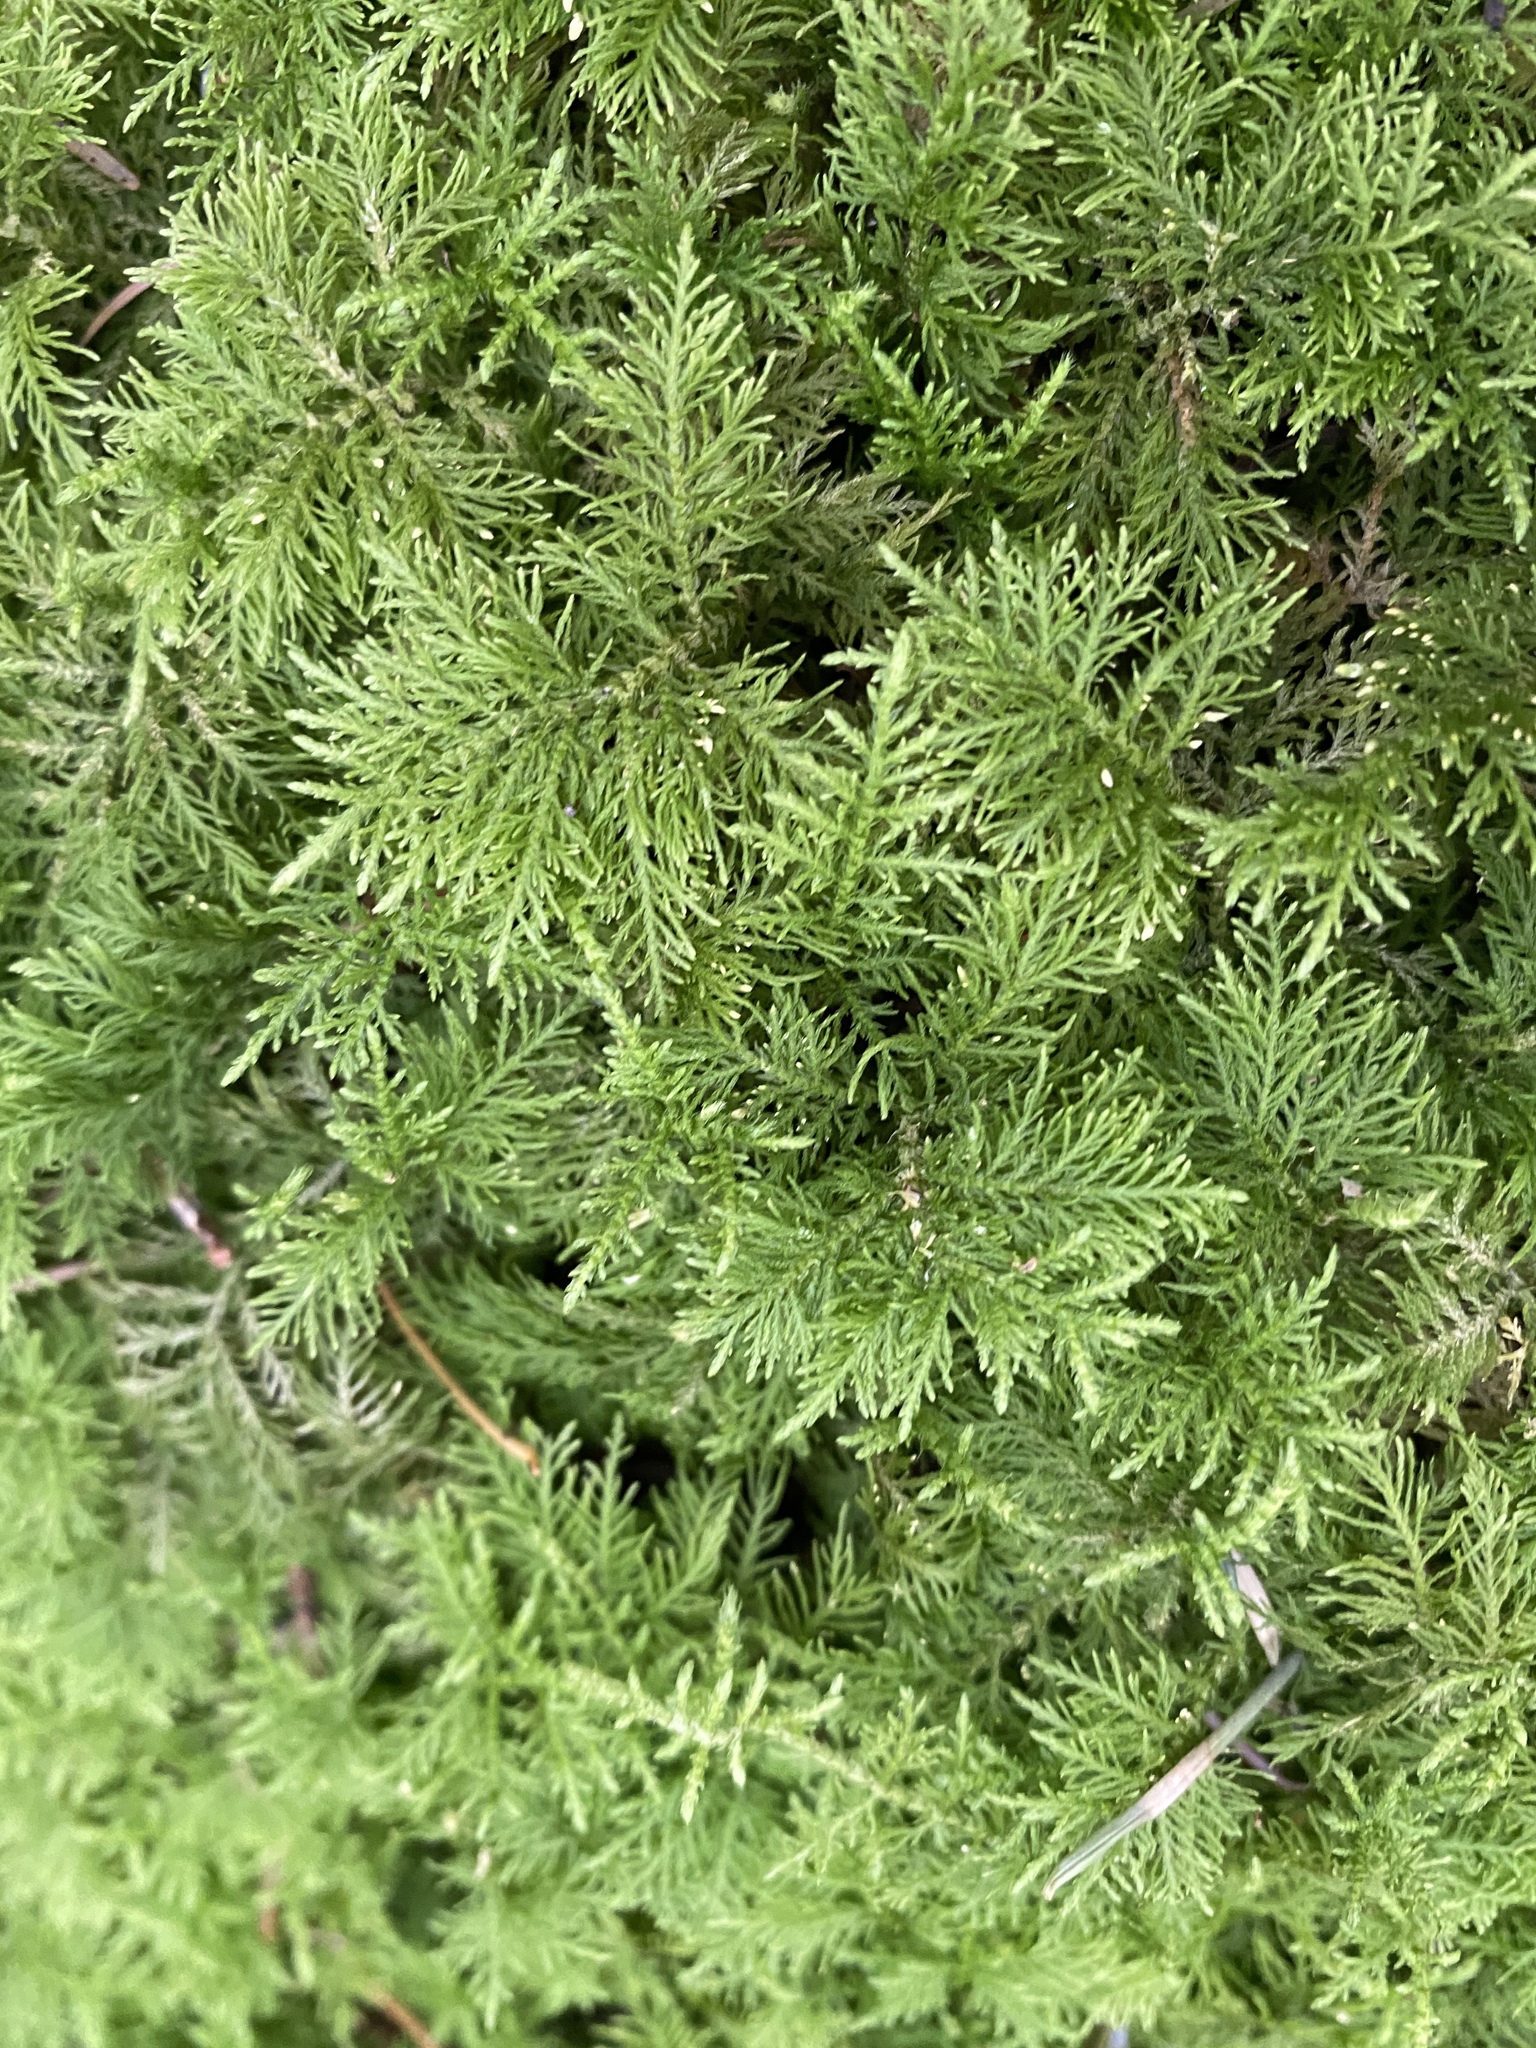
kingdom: Plantae
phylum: Bryophyta
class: Bryopsida
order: Hypnales
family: Thuidiaceae
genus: Thuidium
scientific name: Thuidium tamariscinum
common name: Common tamarisk-moss
